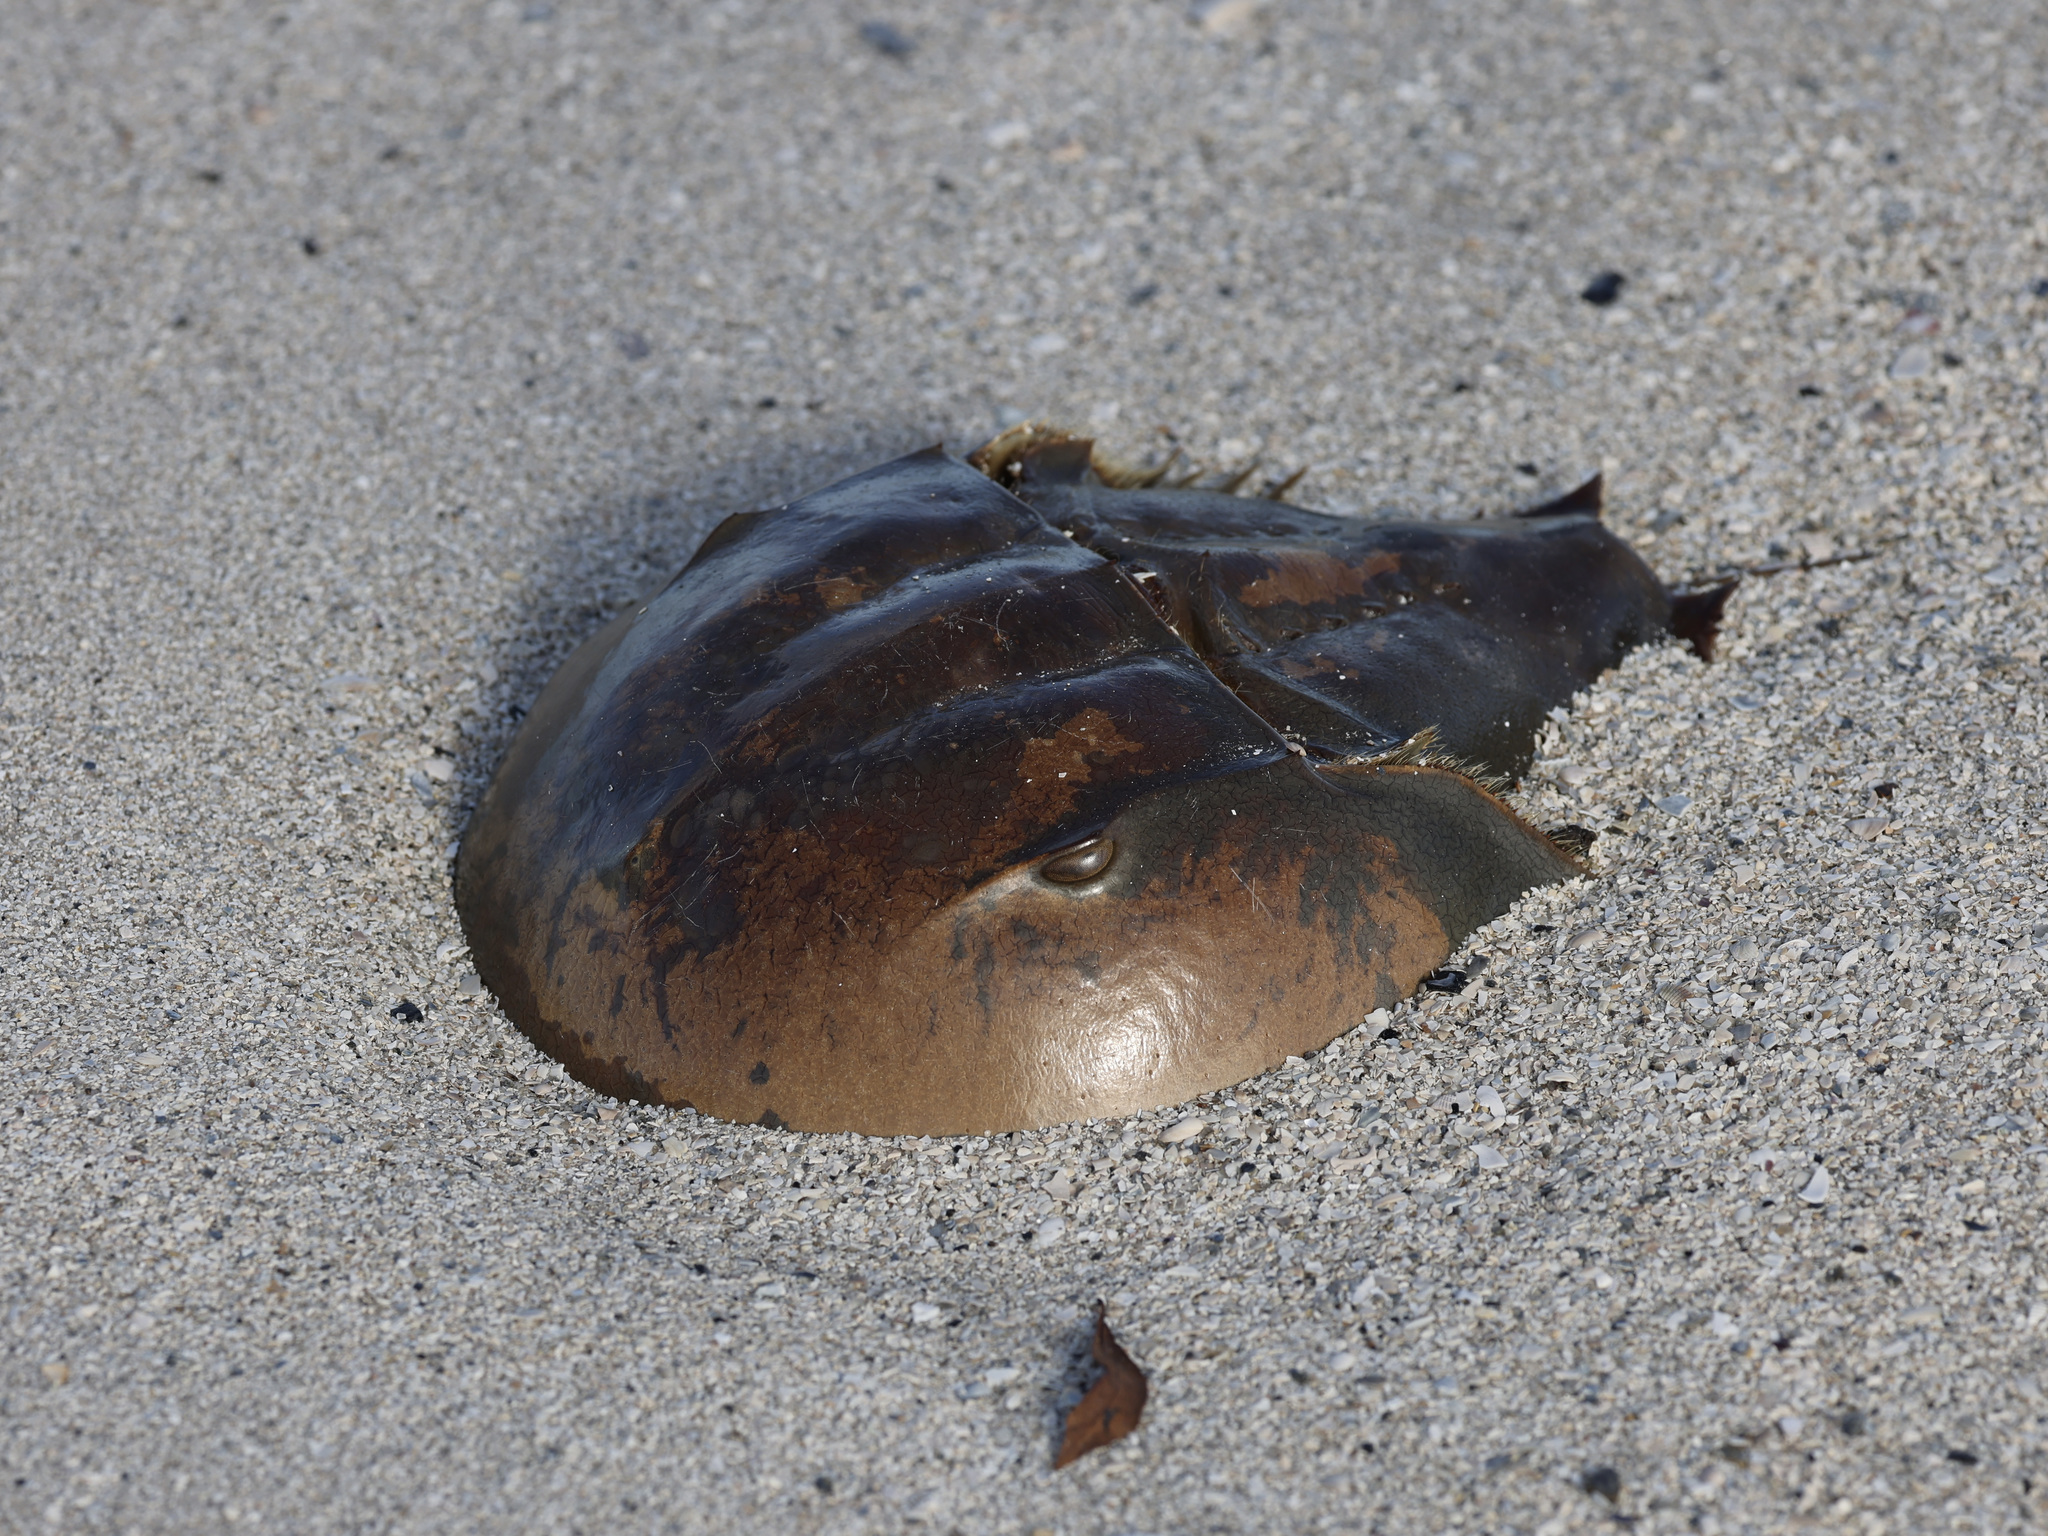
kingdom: Animalia
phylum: Arthropoda
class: Merostomata
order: Xiphosurida
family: Limulidae
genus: Limulus
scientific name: Limulus polyphemus
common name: Horseshoe crab
